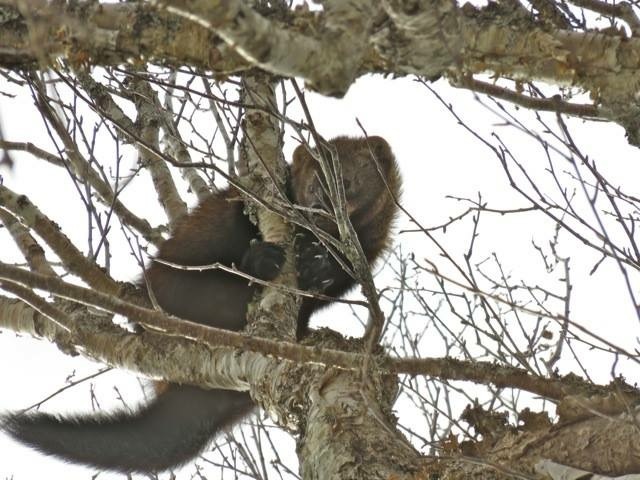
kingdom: Animalia
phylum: Chordata
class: Mammalia
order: Carnivora
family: Mustelidae
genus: Pekania
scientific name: Pekania pennanti
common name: Fisher
